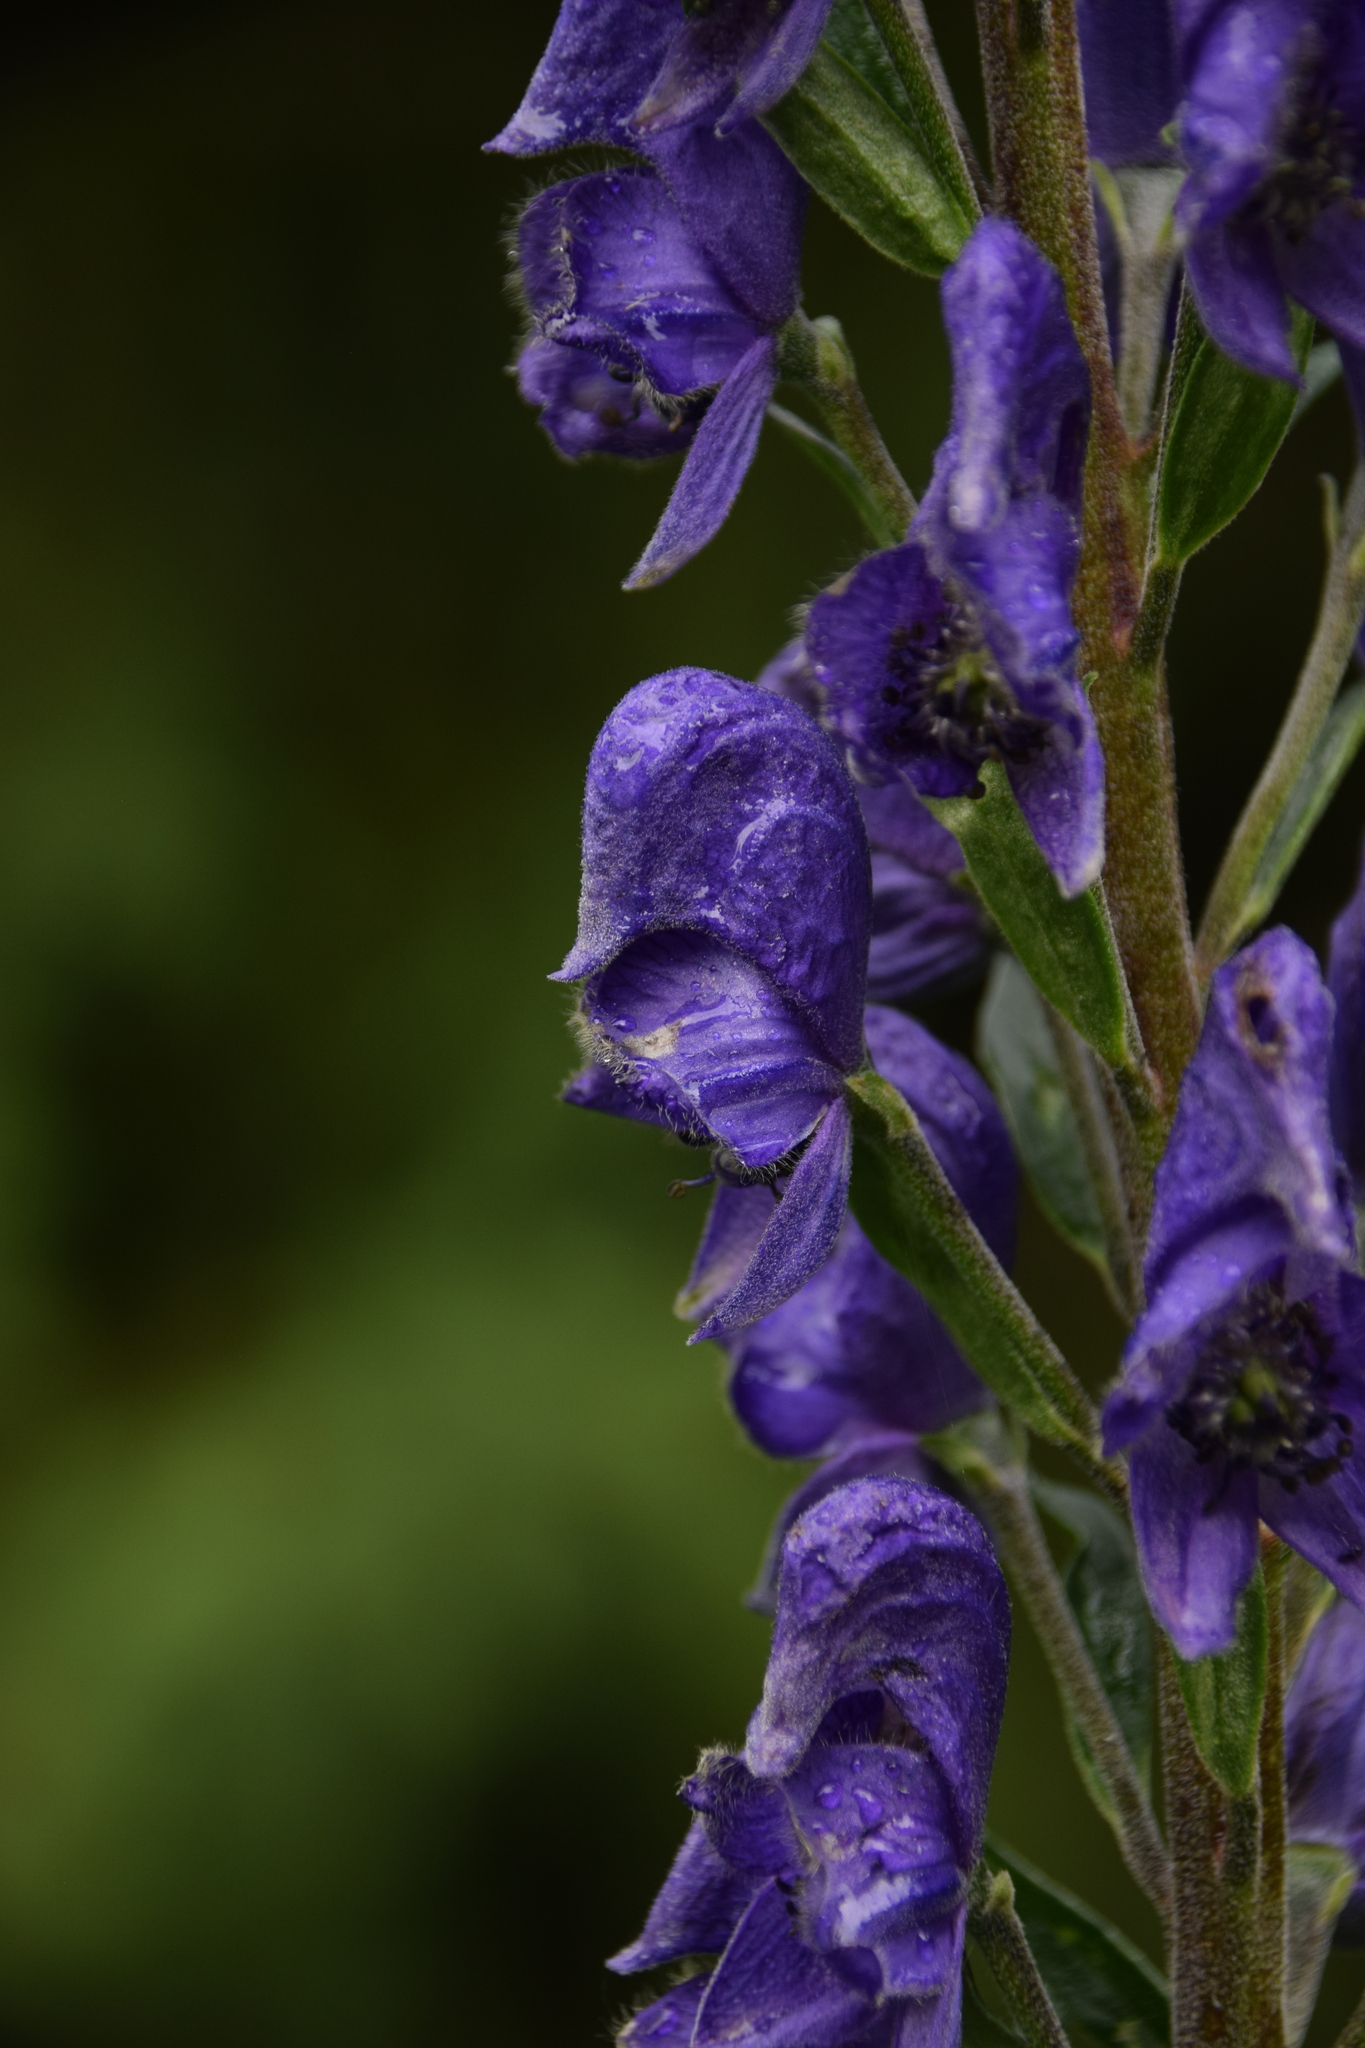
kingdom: Plantae
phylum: Tracheophyta
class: Magnoliopsida
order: Ranunculales
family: Ranunculaceae
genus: Aconitum
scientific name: Aconitum napellus
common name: Garden monkshood
